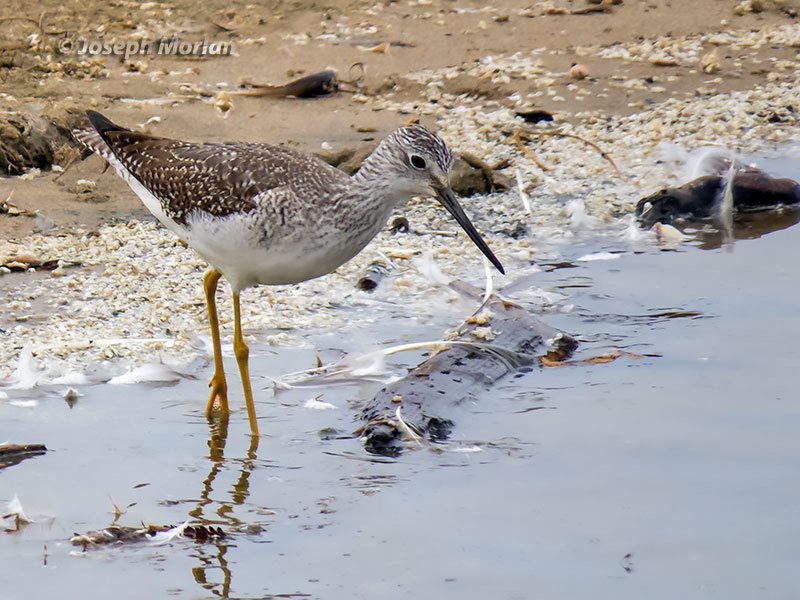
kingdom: Animalia
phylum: Chordata
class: Aves
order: Charadriiformes
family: Scolopacidae
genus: Tringa
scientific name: Tringa melanoleuca
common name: Greater yellowlegs
